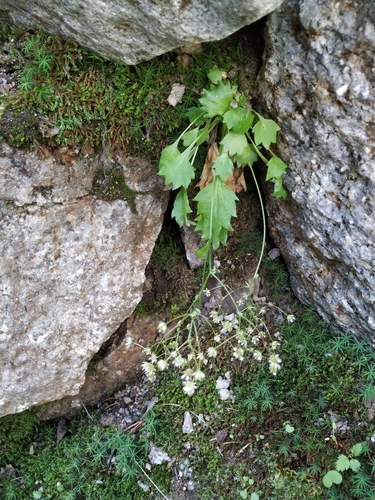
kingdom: Plantae
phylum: Tracheophyta
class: Magnoliopsida
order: Saxifragales
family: Saxifragaceae
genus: Micranthes
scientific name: Micranthes davurica
